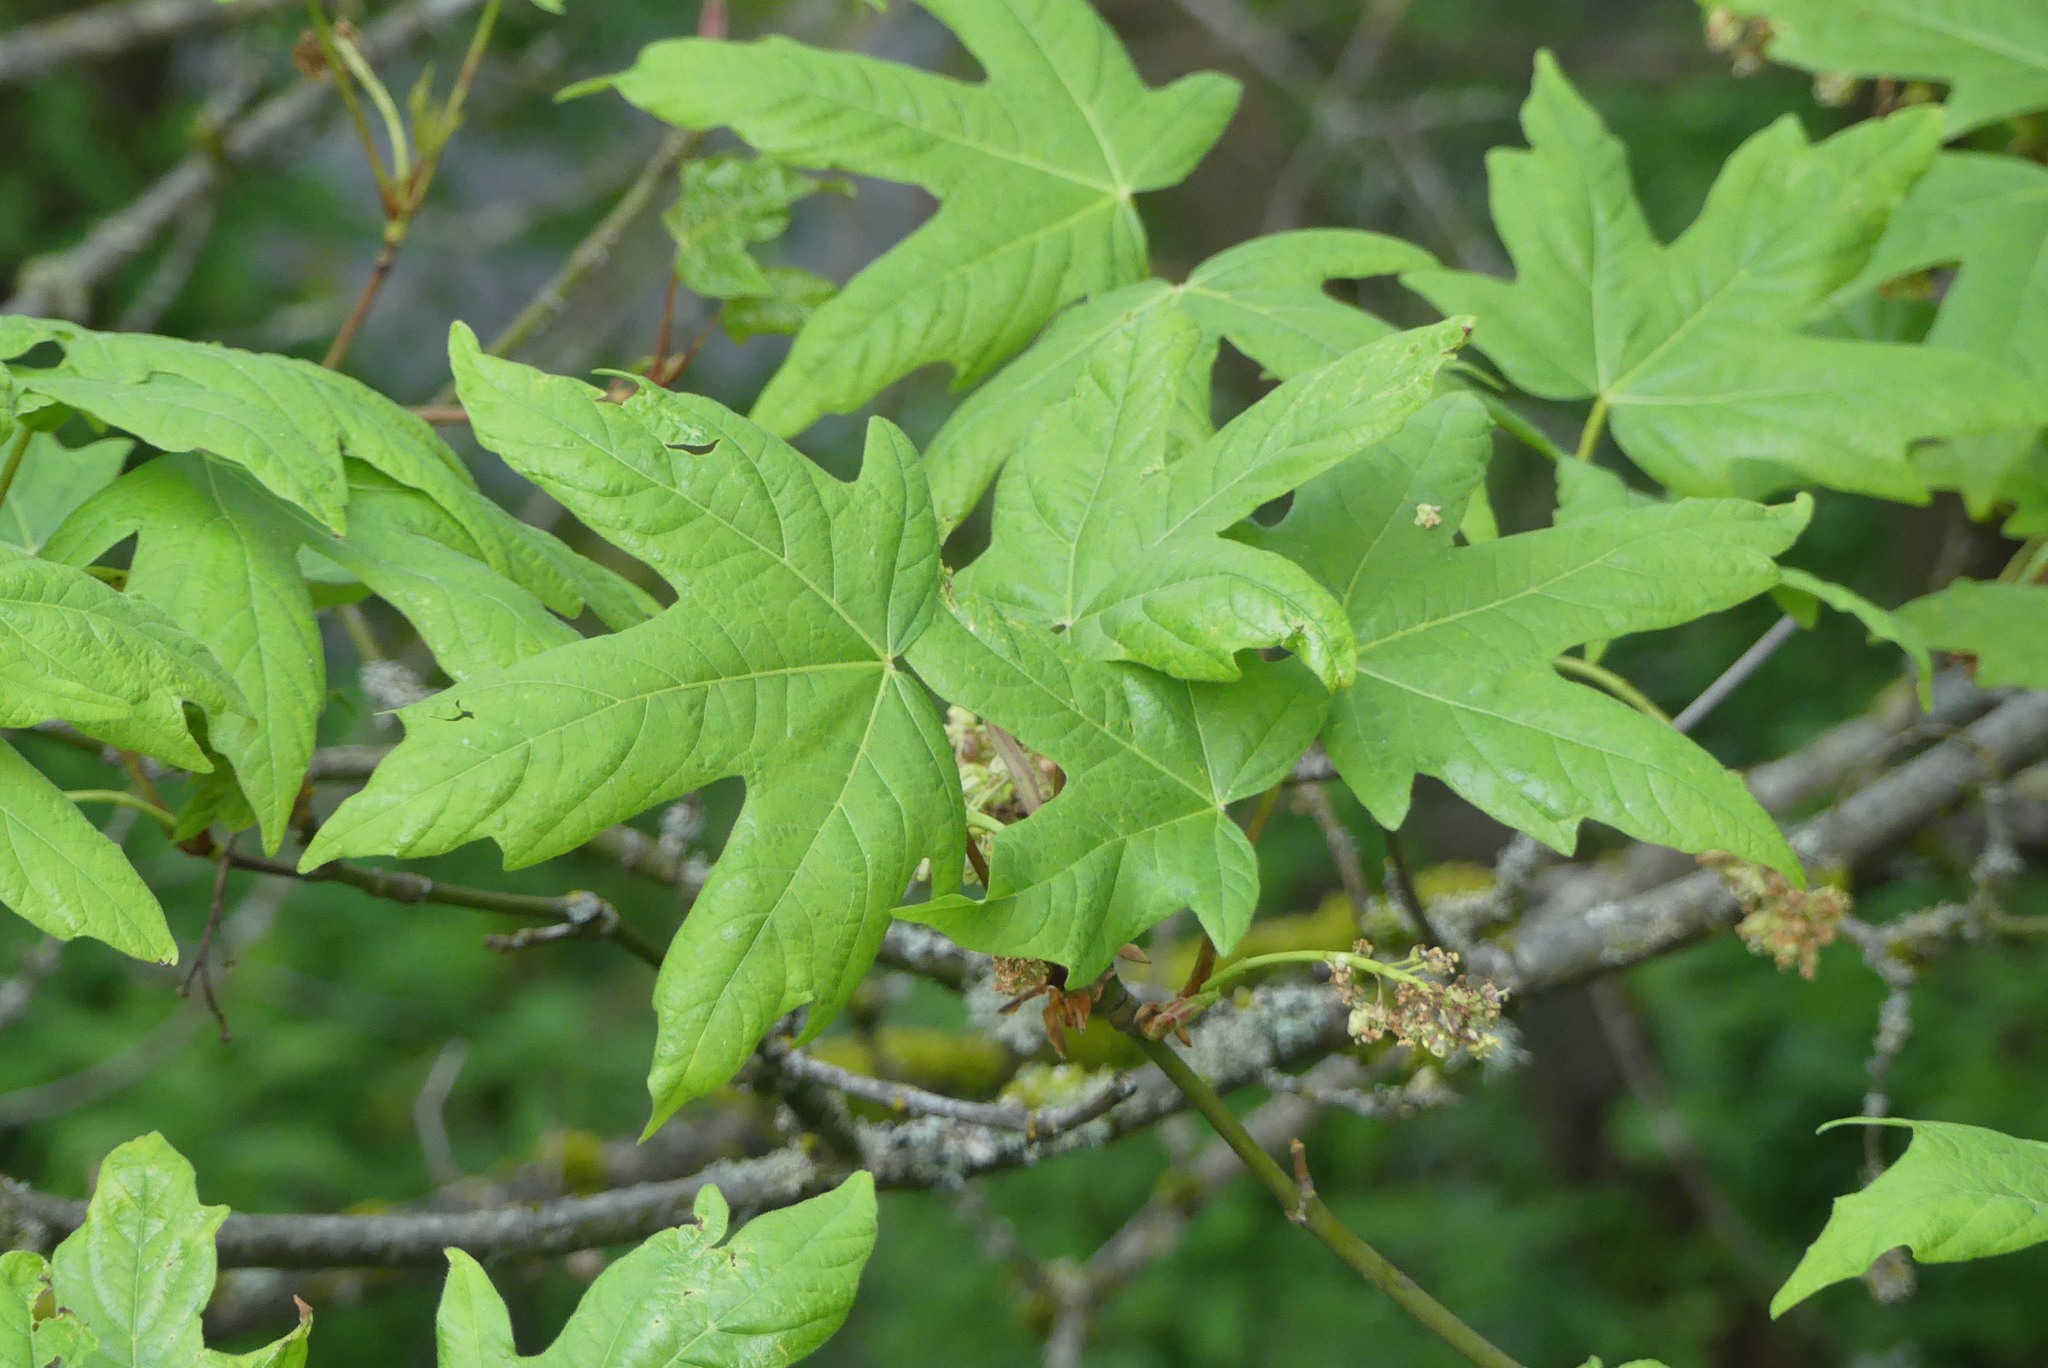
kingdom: Plantae
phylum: Tracheophyta
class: Magnoliopsida
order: Sapindales
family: Sapindaceae
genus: Acer
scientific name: Acer macrophyllum
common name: Oregon maple
